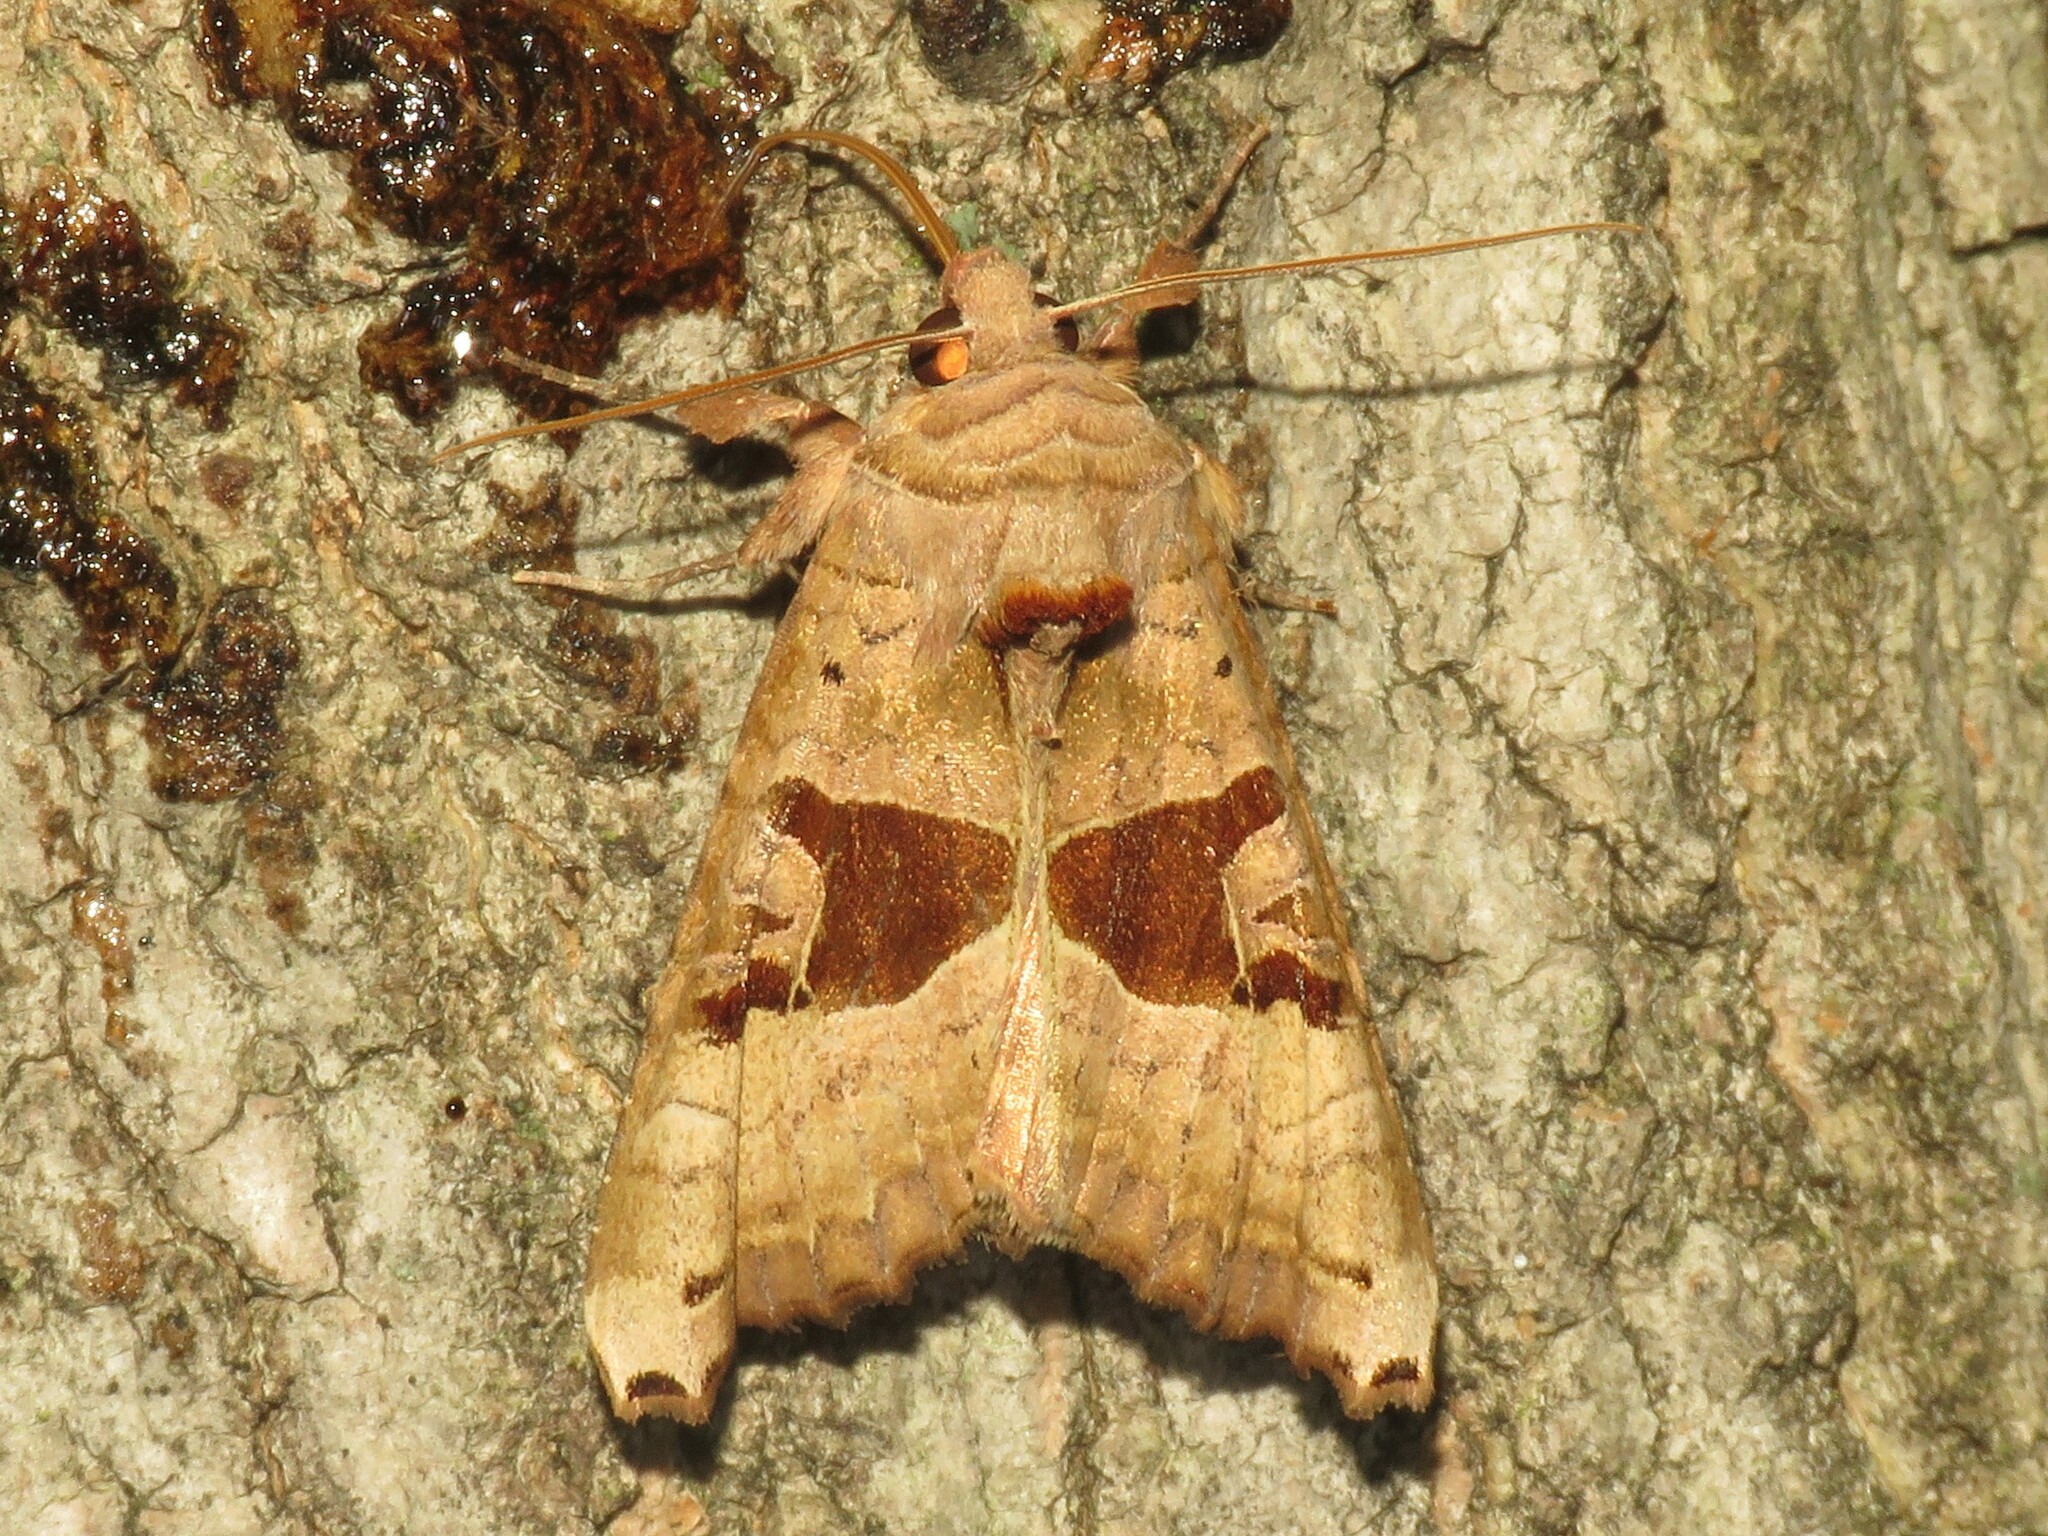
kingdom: Animalia
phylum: Arthropoda
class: Insecta
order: Lepidoptera
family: Noctuidae
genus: Phlogophora
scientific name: Phlogophora periculosa
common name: Brown angle shades
